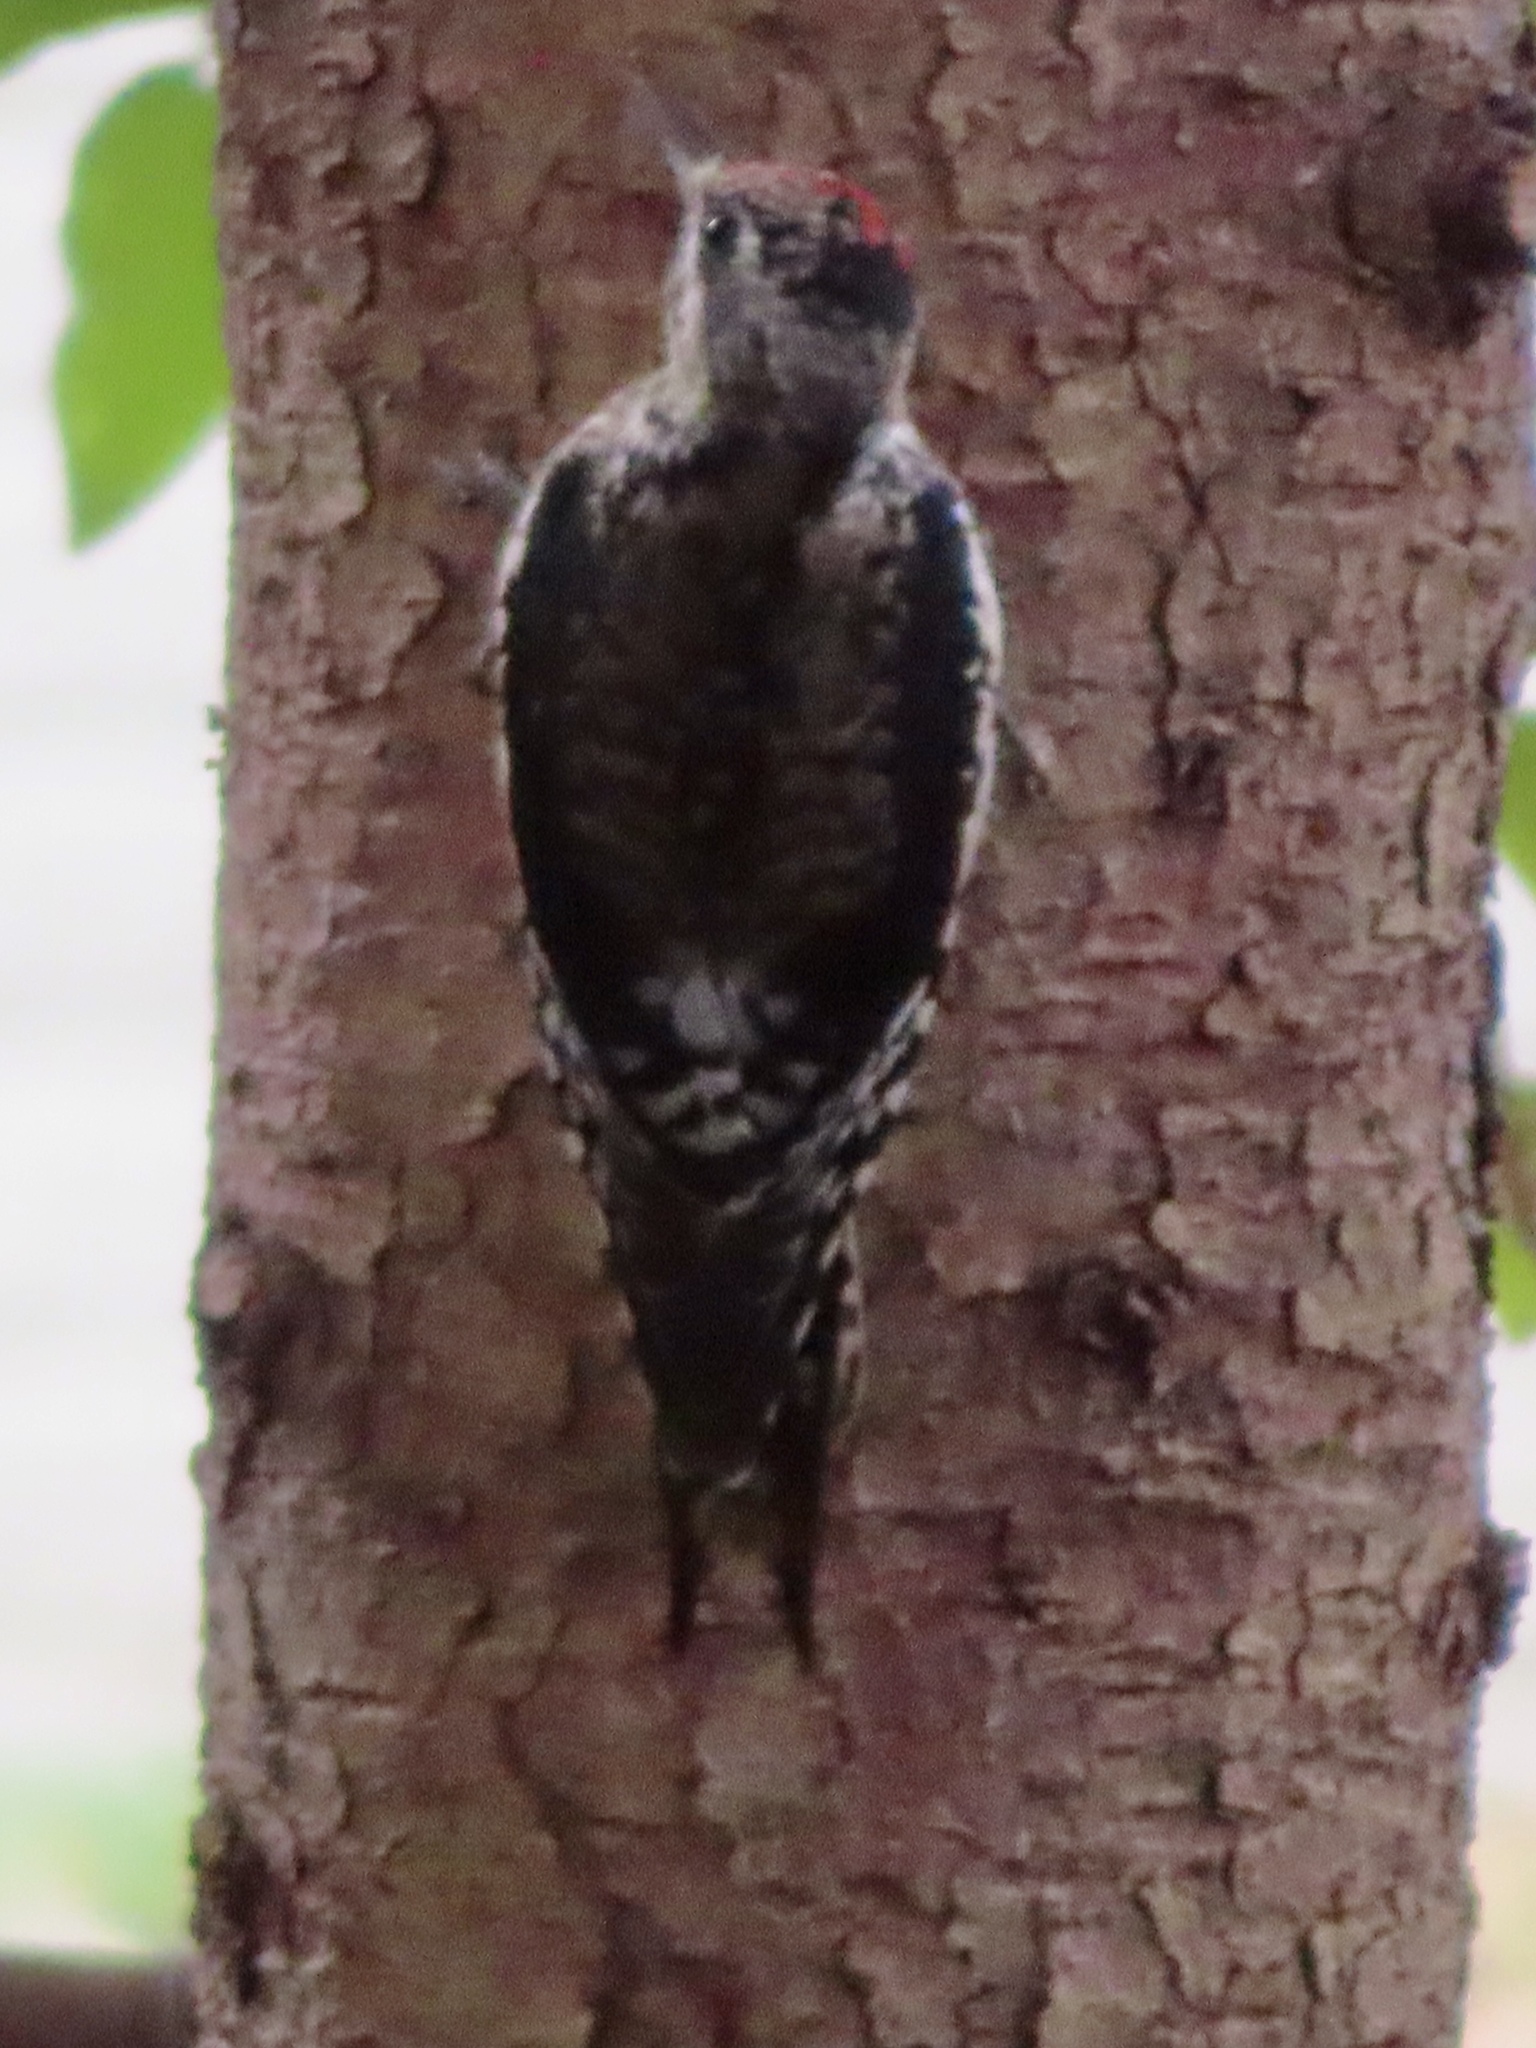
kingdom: Animalia
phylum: Chordata
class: Aves
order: Piciformes
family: Picidae
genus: Sphyrapicus
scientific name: Sphyrapicus varius
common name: Yellow-bellied sapsucker
